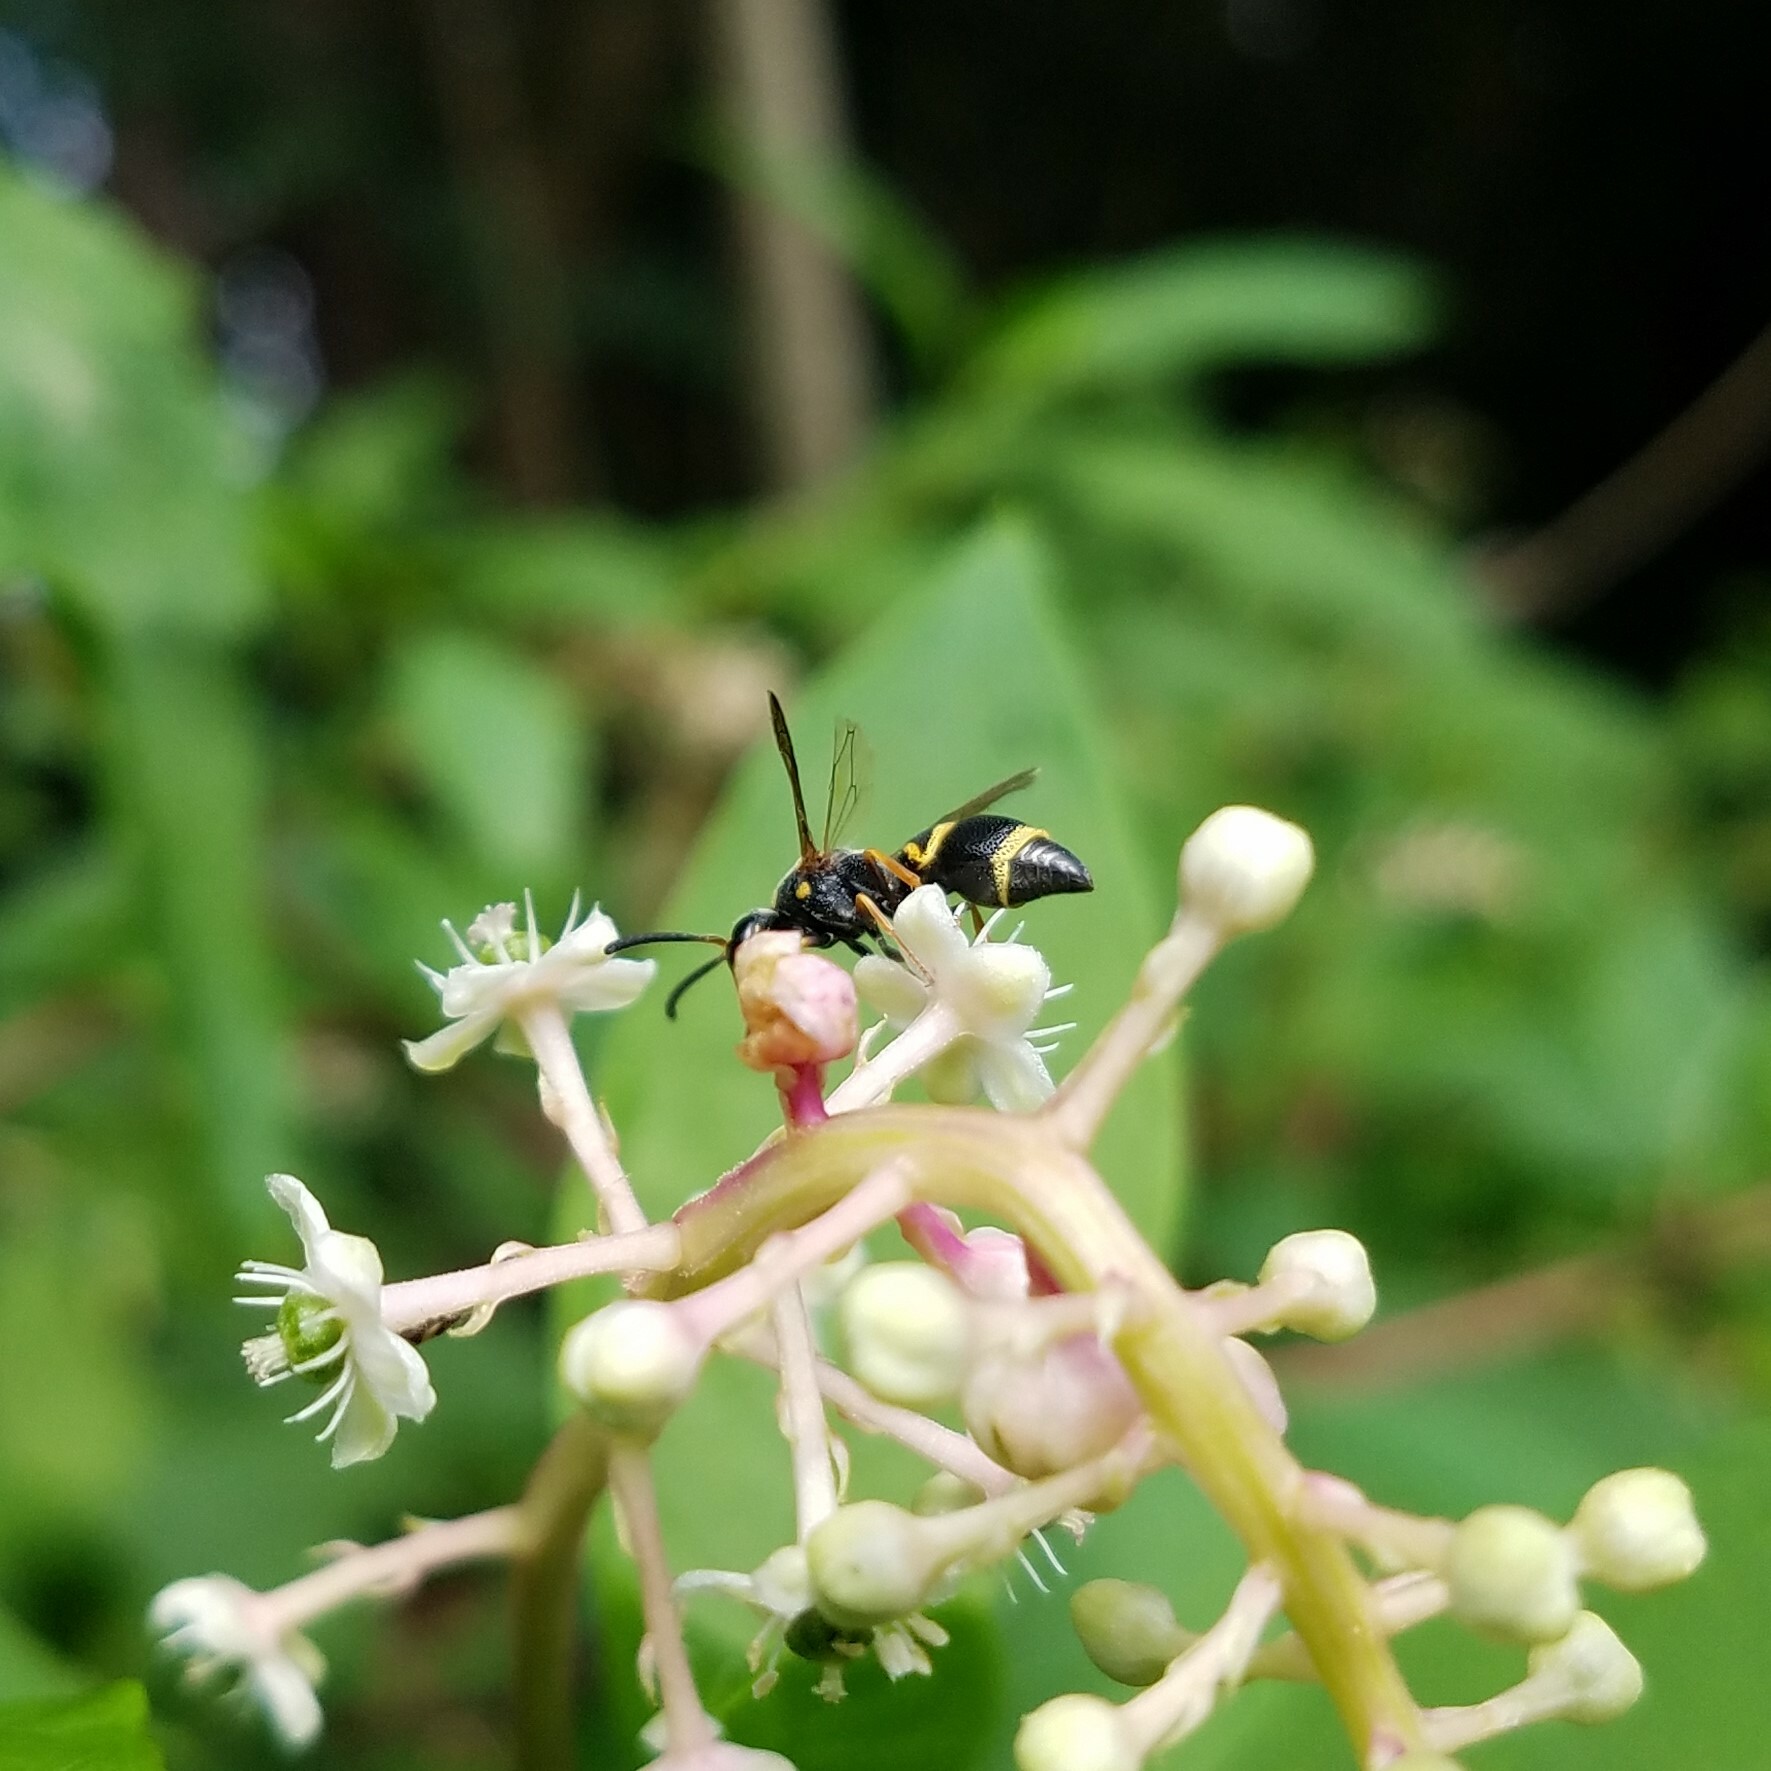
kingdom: Animalia
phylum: Arthropoda
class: Insecta
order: Hymenoptera
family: Eumenidae
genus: Parancistrocerus
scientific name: Parancistrocerus fulvipes
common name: Potter wasp
